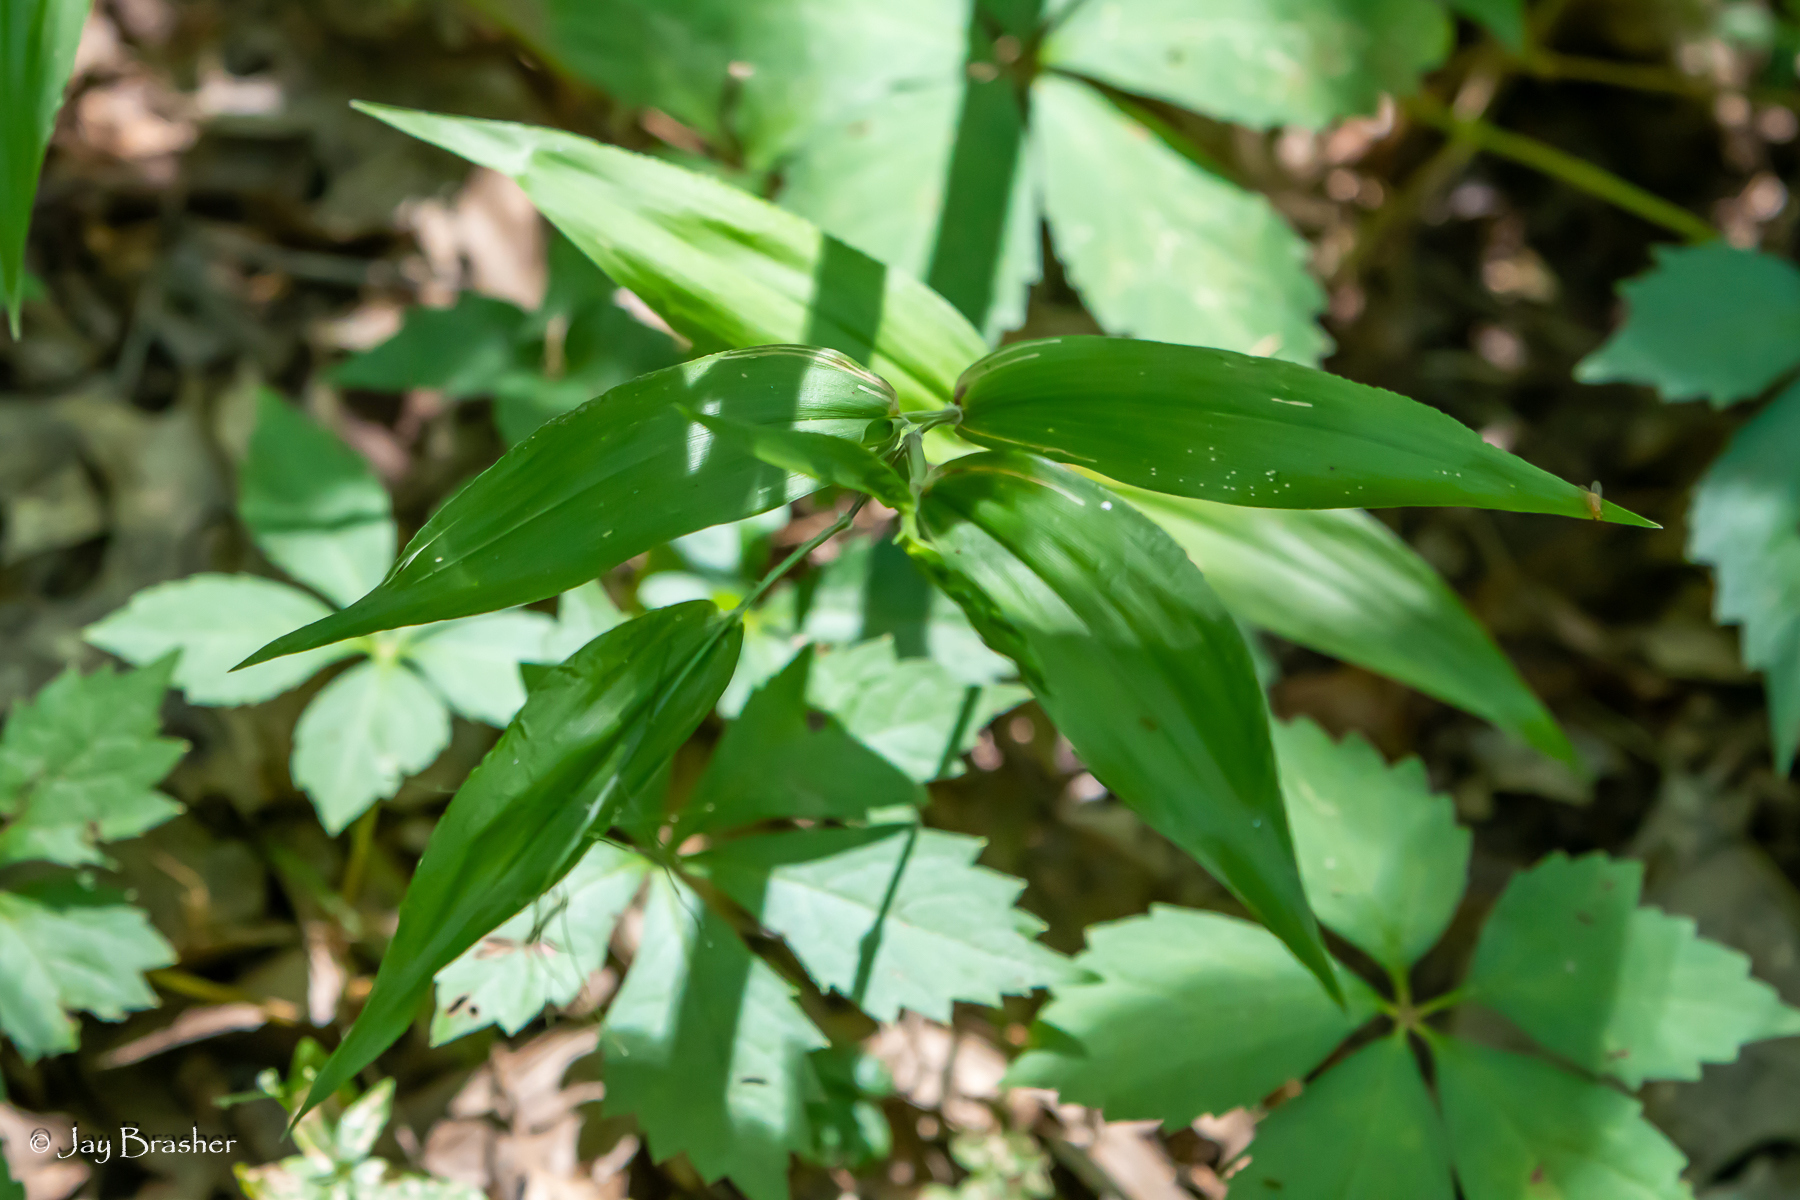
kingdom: Plantae
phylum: Tracheophyta
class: Liliopsida
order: Poales
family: Poaceae
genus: Dichanthelium
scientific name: Dichanthelium boscii
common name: Bosc's panic grass
